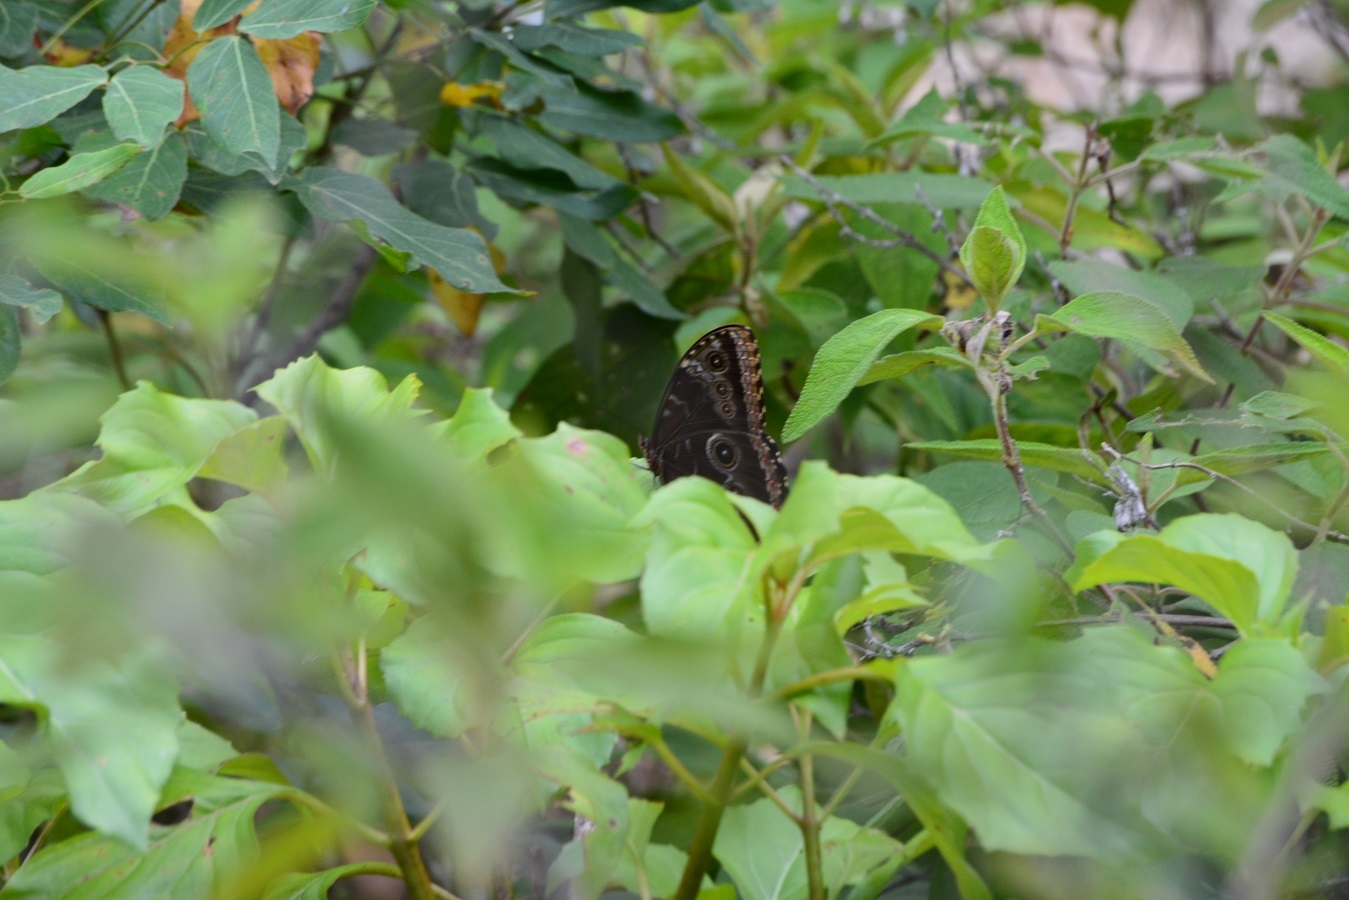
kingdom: Animalia
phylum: Arthropoda
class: Insecta
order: Lepidoptera
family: Nymphalidae
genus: Morpho
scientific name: Morpho helenor
